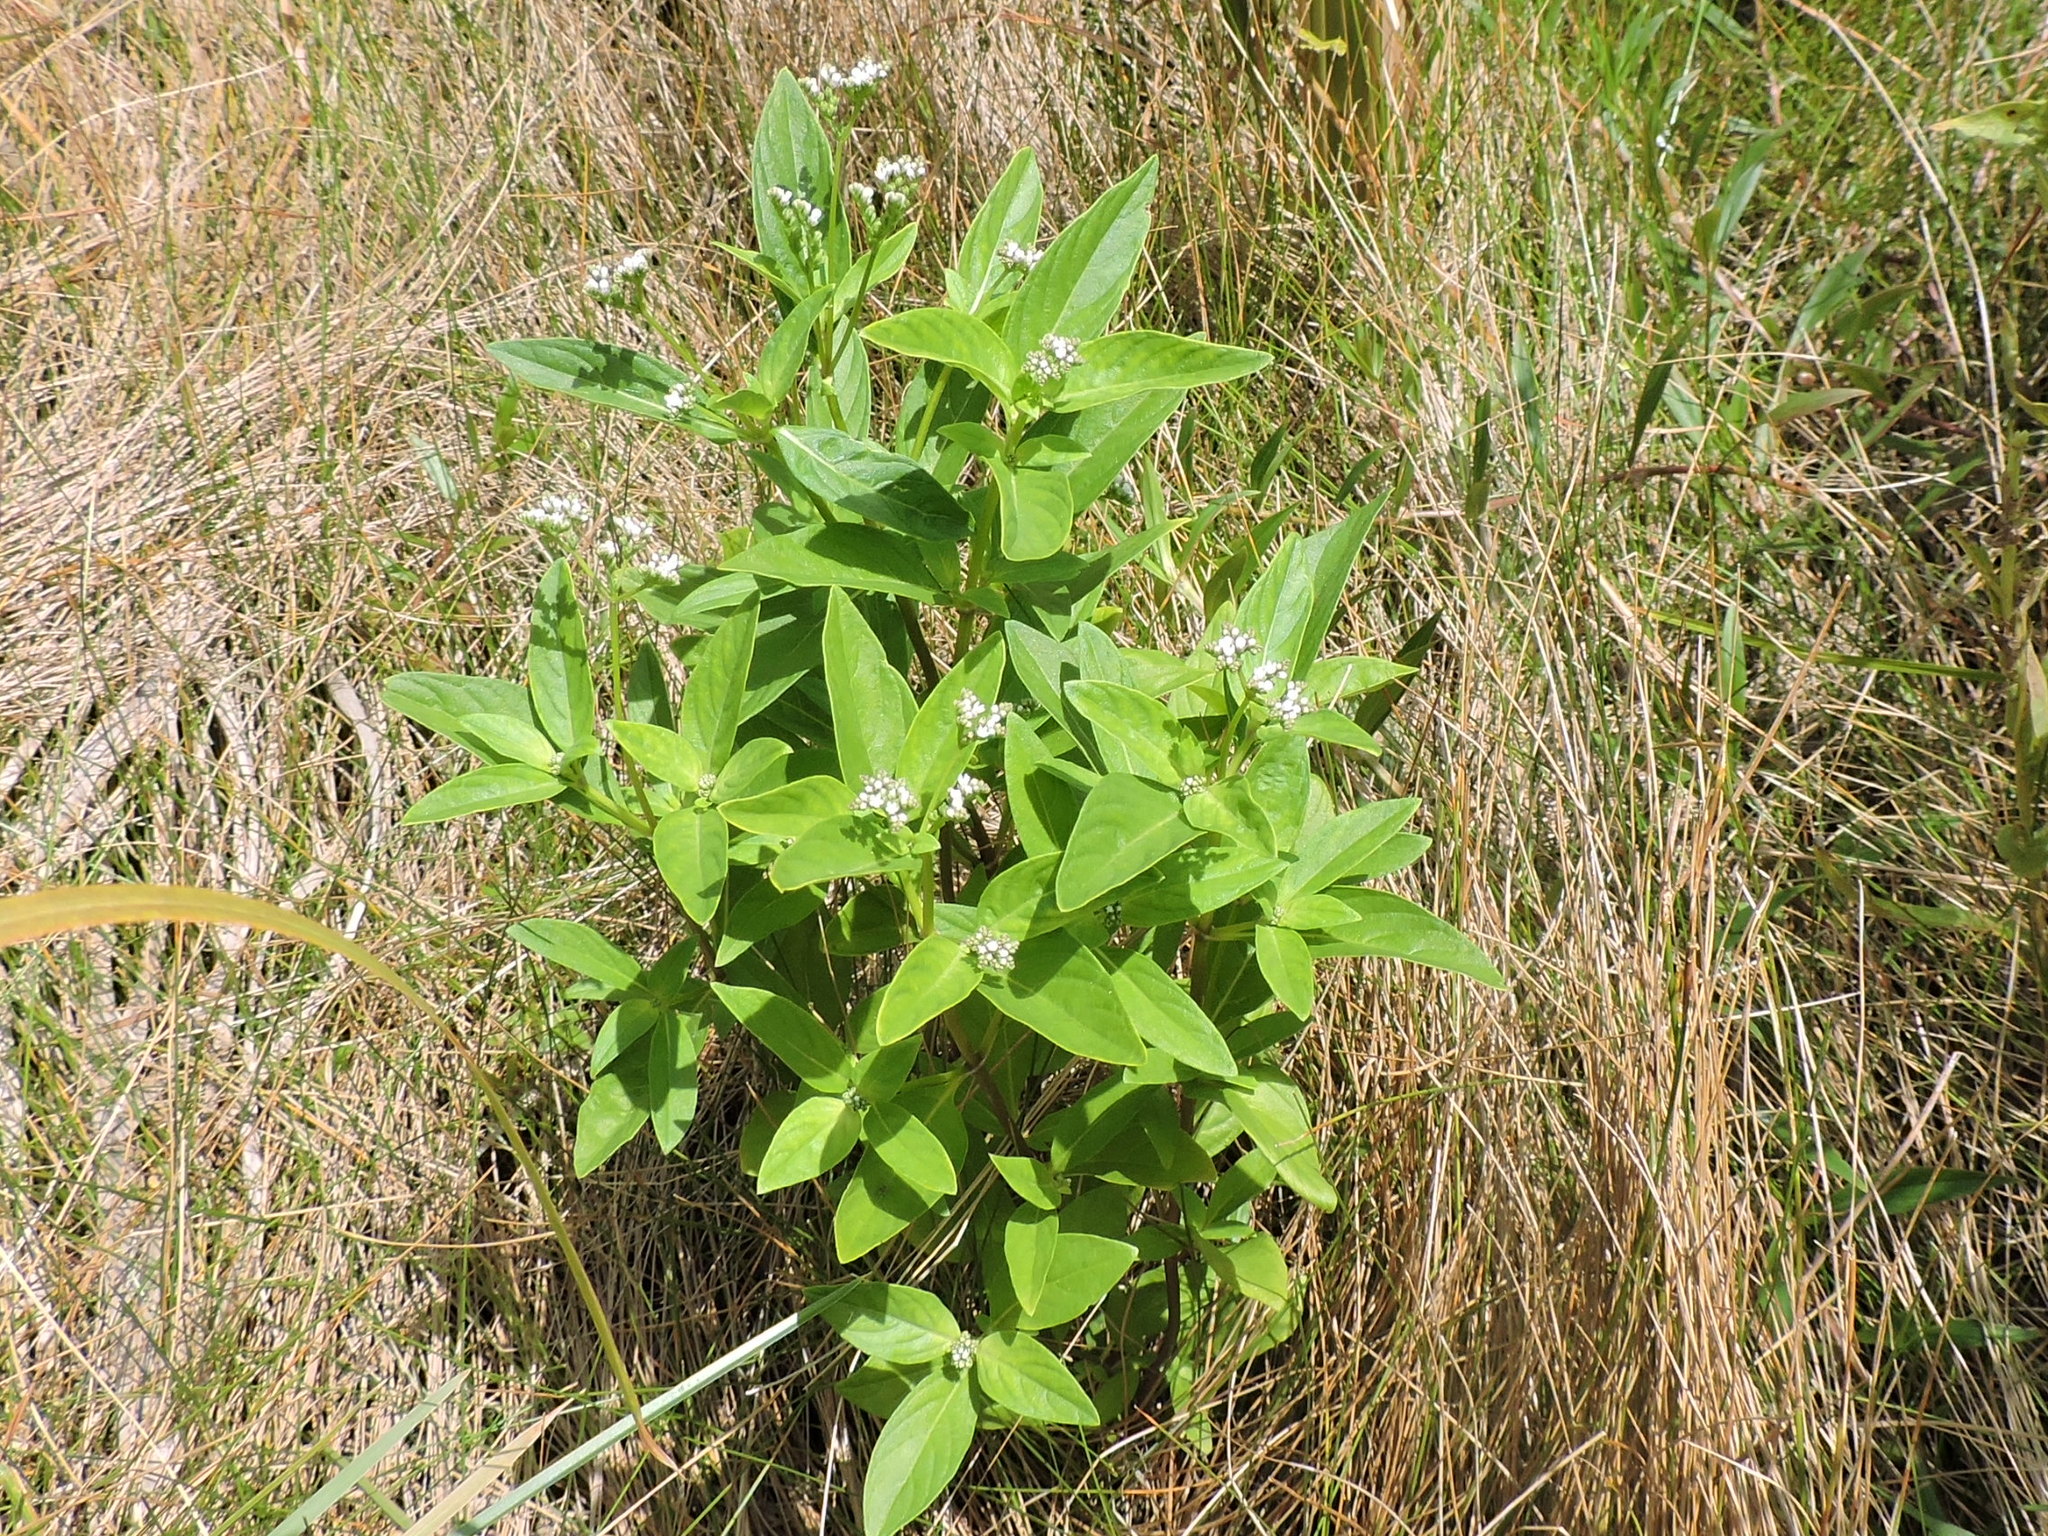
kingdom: Plantae
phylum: Tracheophyta
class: Magnoliopsida
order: Gentianales
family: Loganiaceae
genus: Mitreola
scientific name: Mitreola petiolata
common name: Lax hornpod
